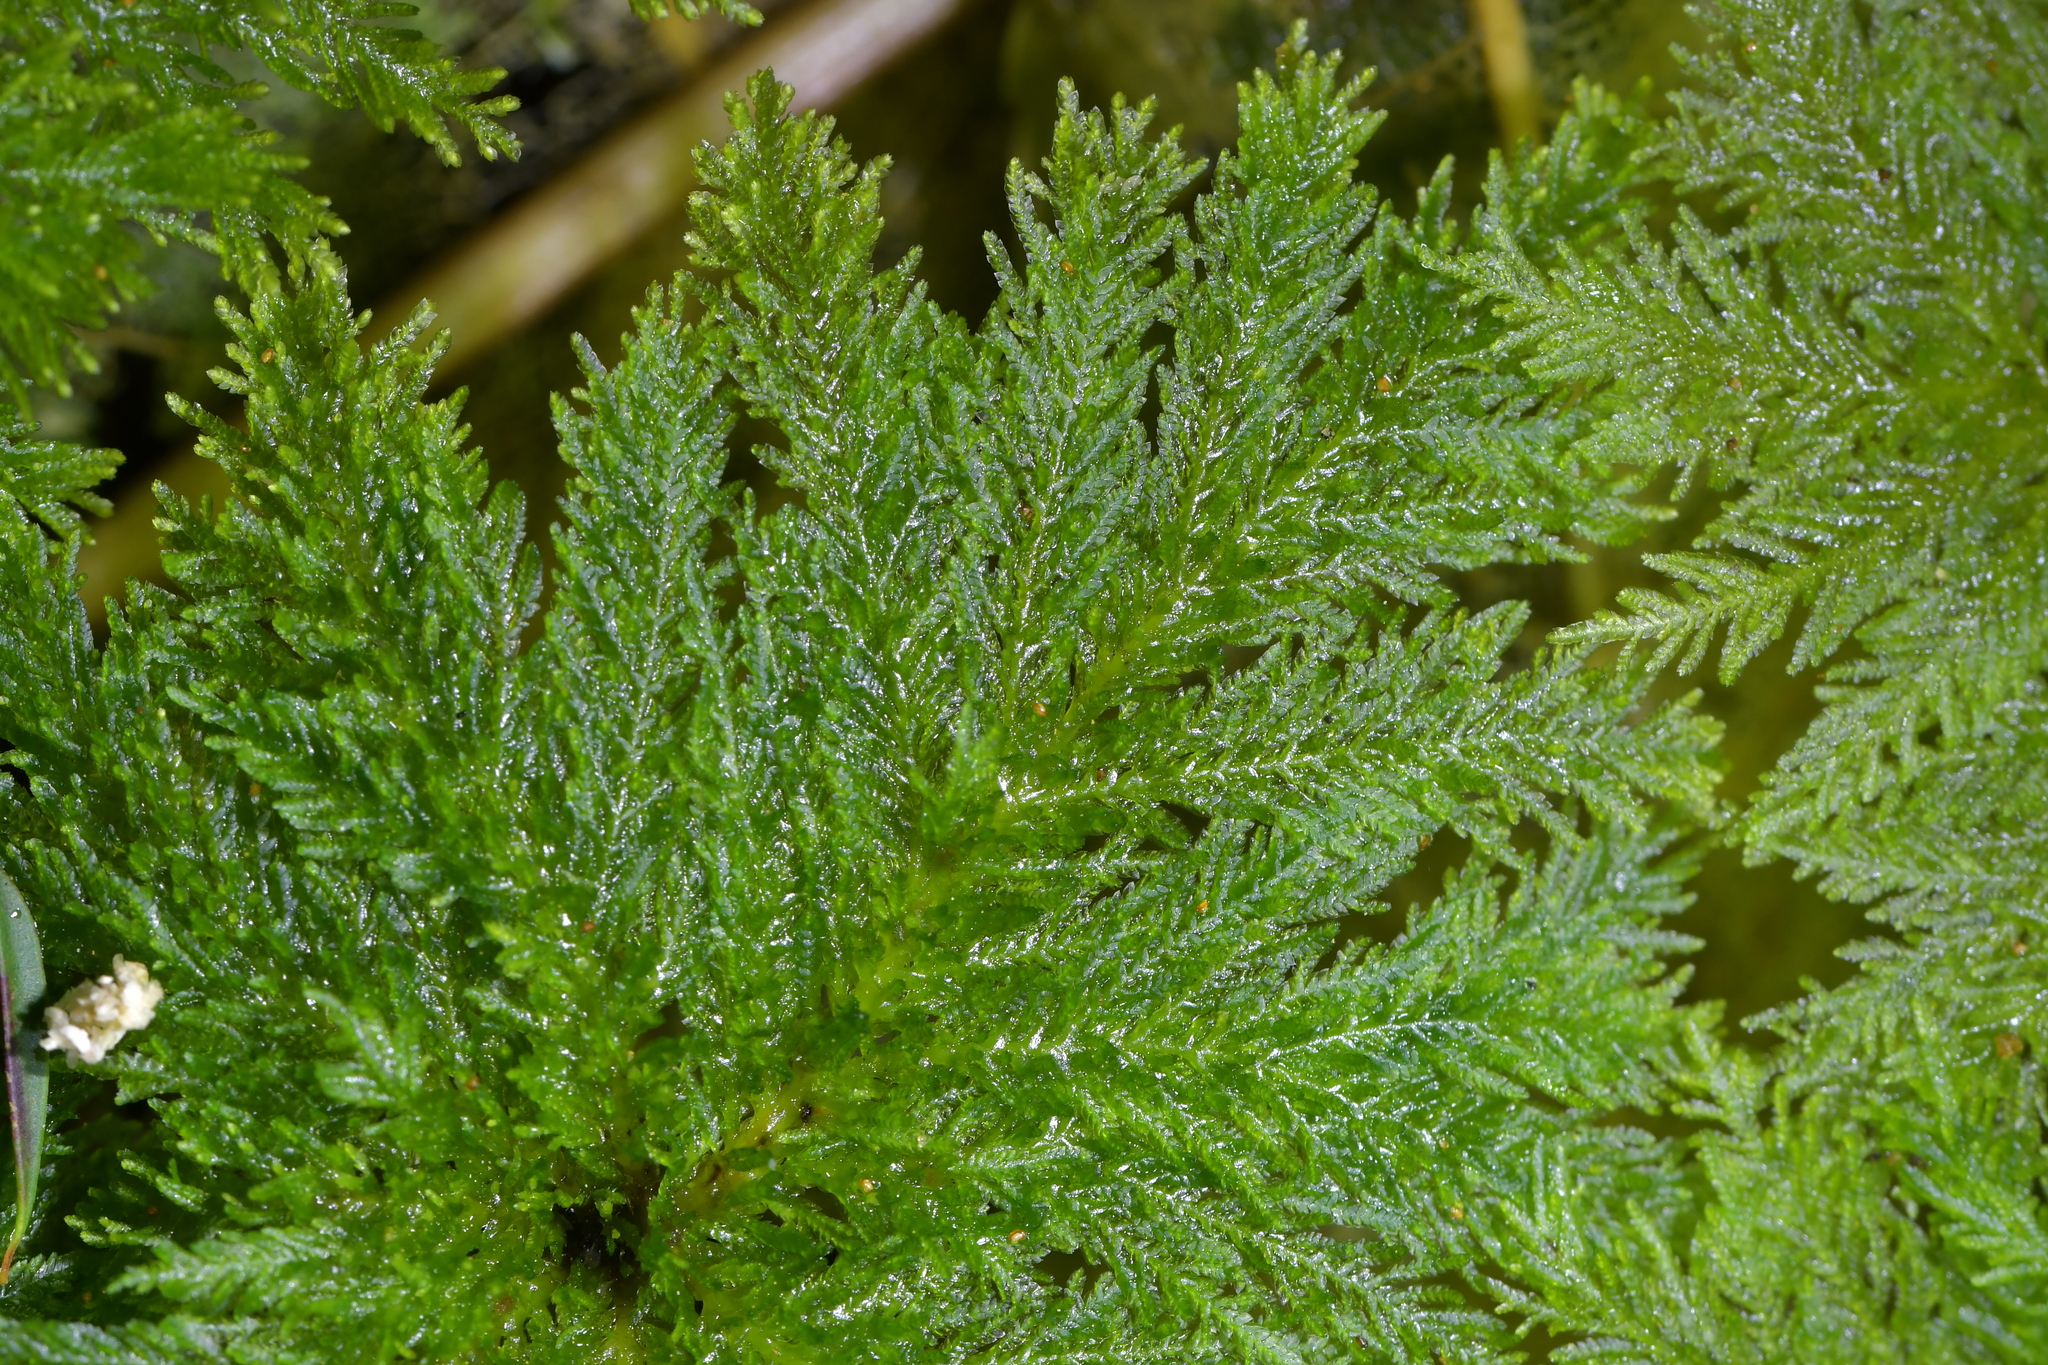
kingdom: Plantae
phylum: Bryophyta
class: Bryopsida
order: Hypopterygiales
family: Hypopterygiaceae
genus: Dendrohypopterygium
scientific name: Dendrohypopterygium filiculiforme
